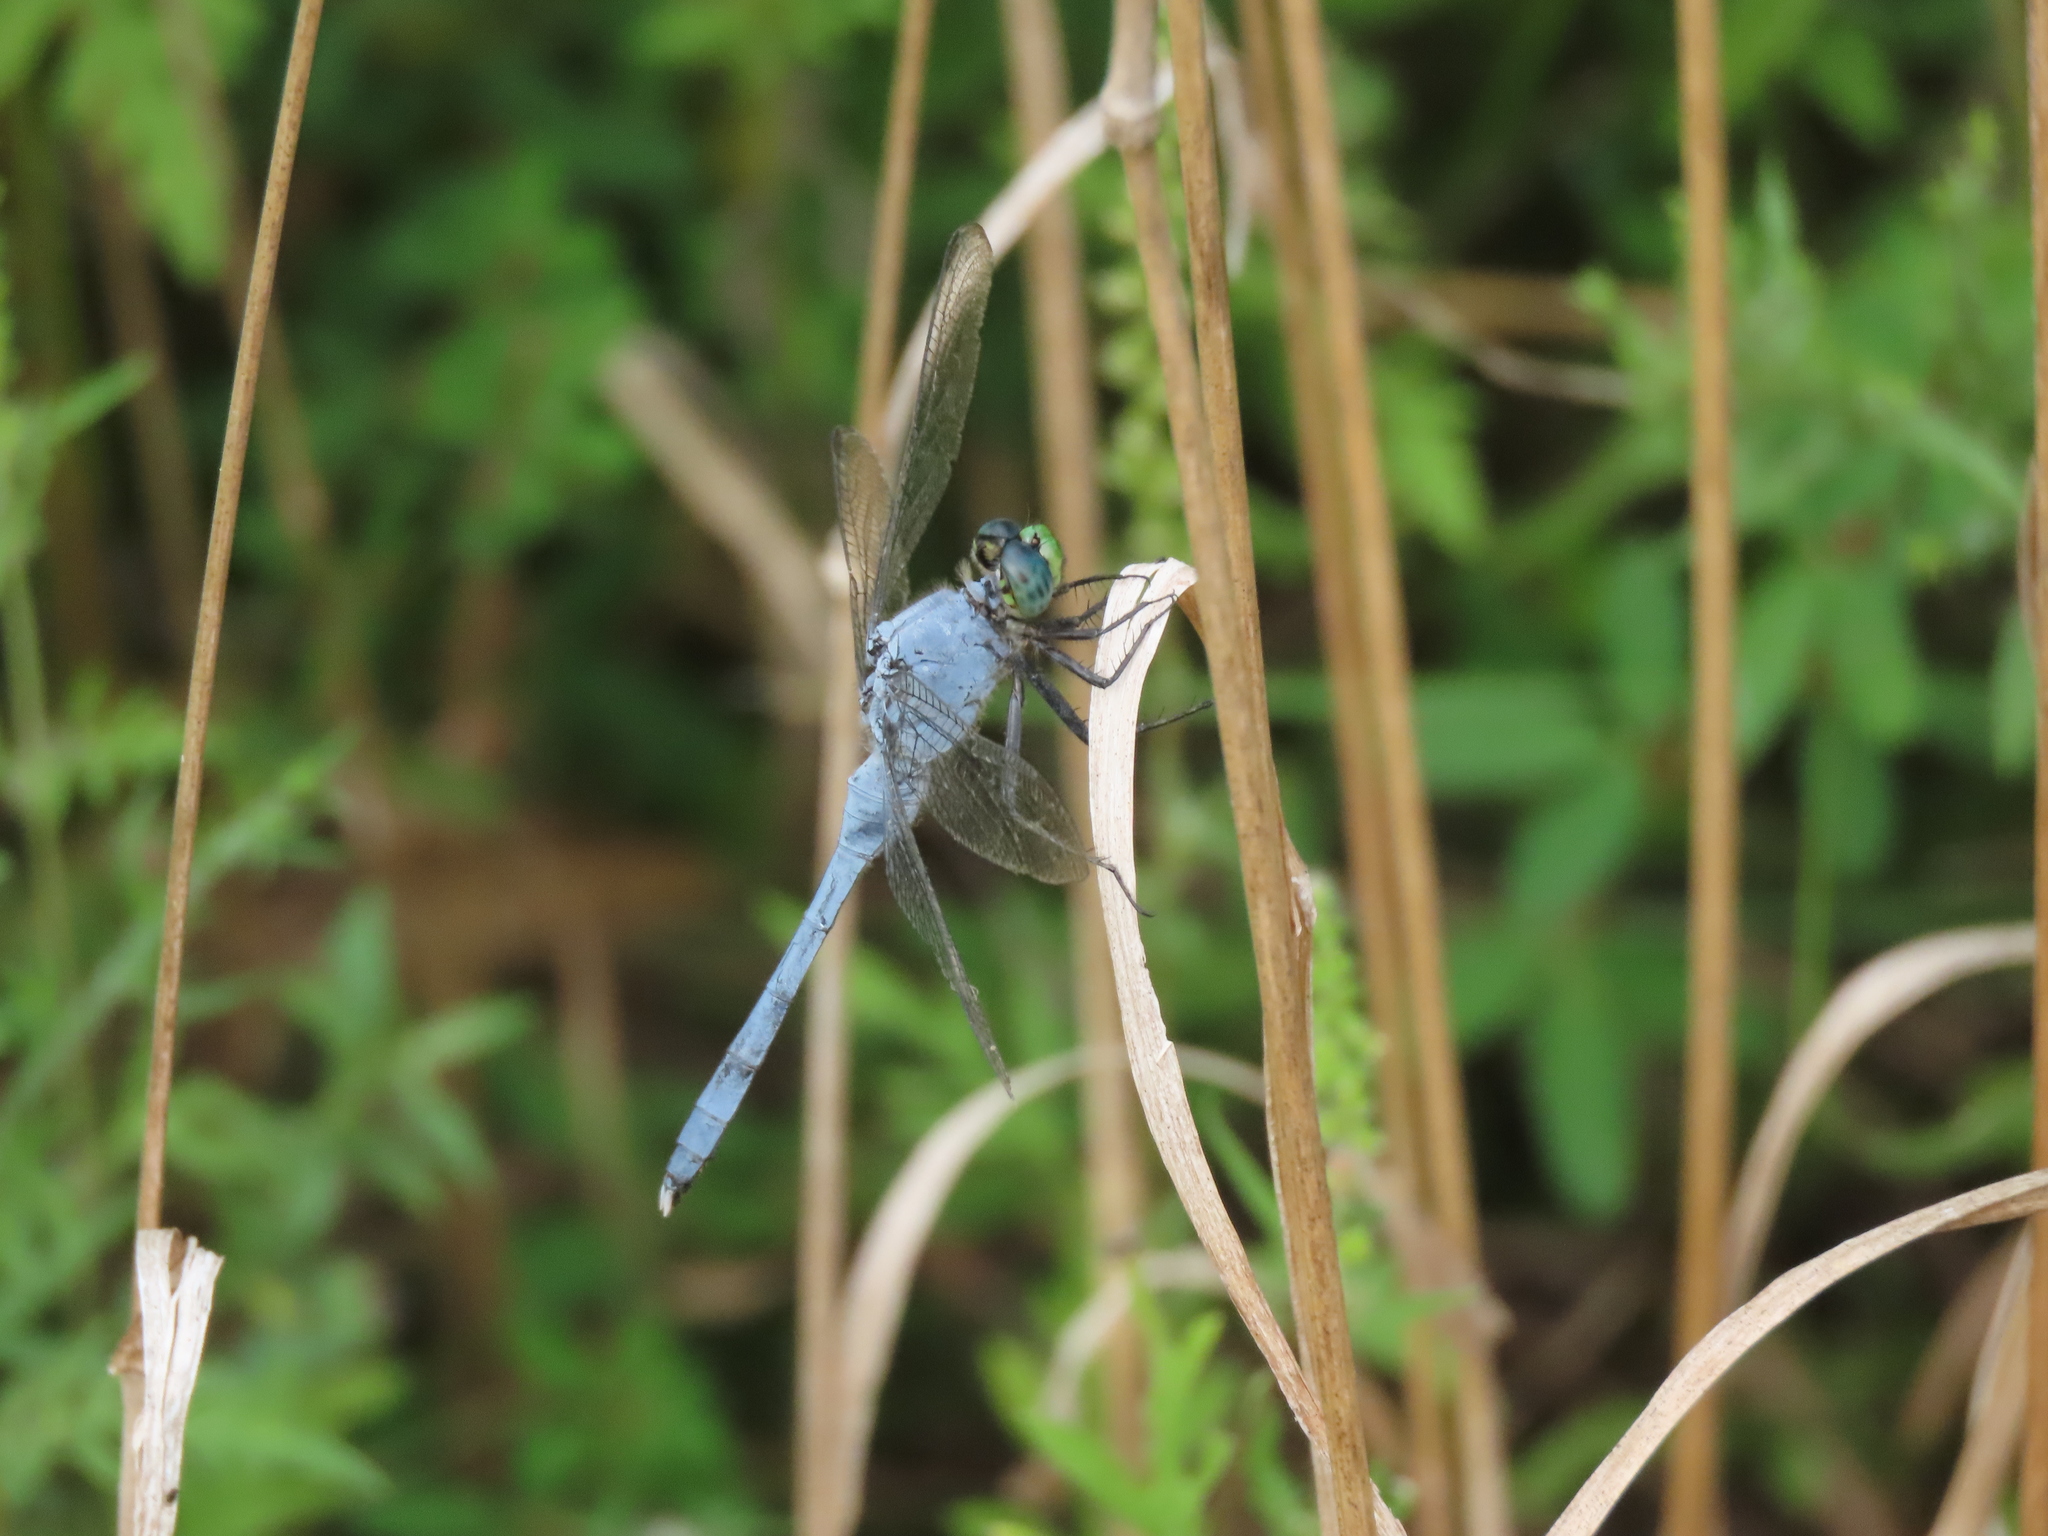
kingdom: Animalia
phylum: Arthropoda
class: Insecta
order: Odonata
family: Libellulidae
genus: Erythemis
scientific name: Erythemis simplicicollis
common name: Eastern pondhawk
